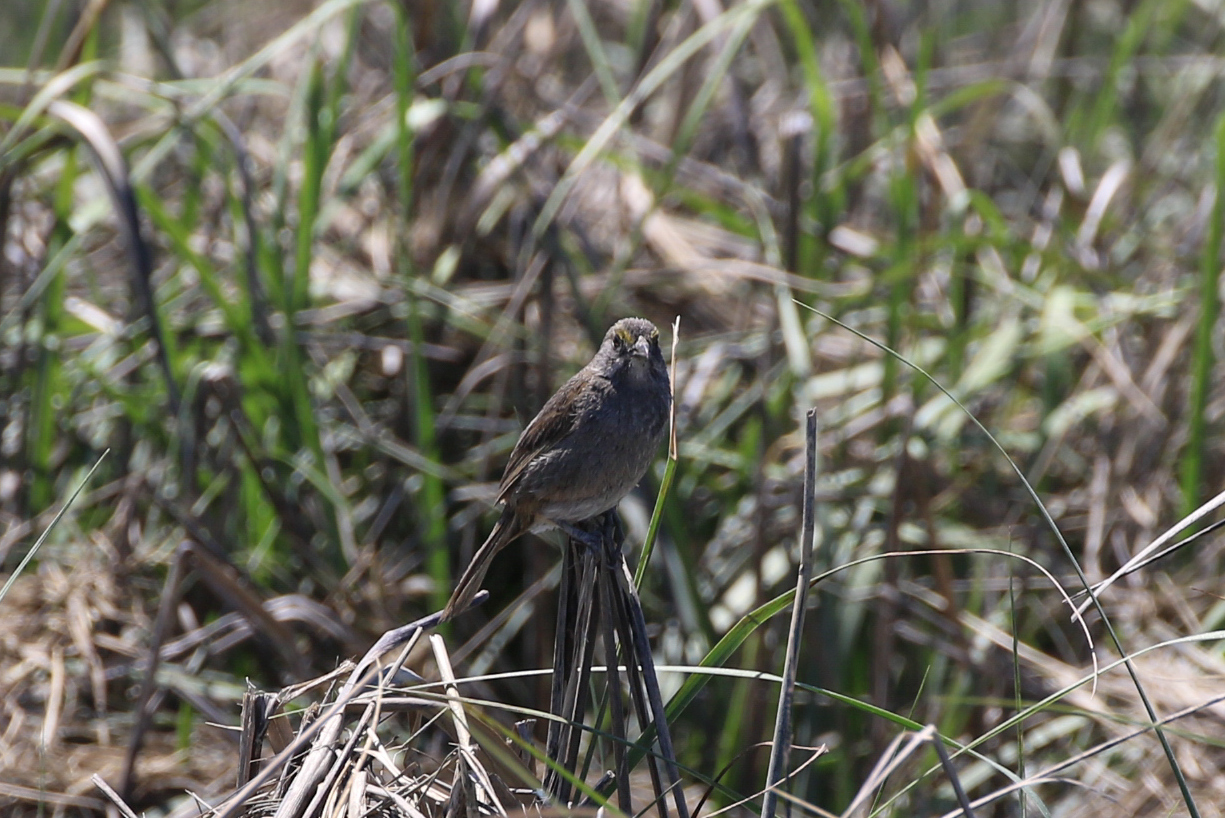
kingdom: Animalia
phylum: Chordata
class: Aves
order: Passeriformes
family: Passerellidae
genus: Ammospiza
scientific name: Ammospiza maritima
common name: Seaside sparrow
